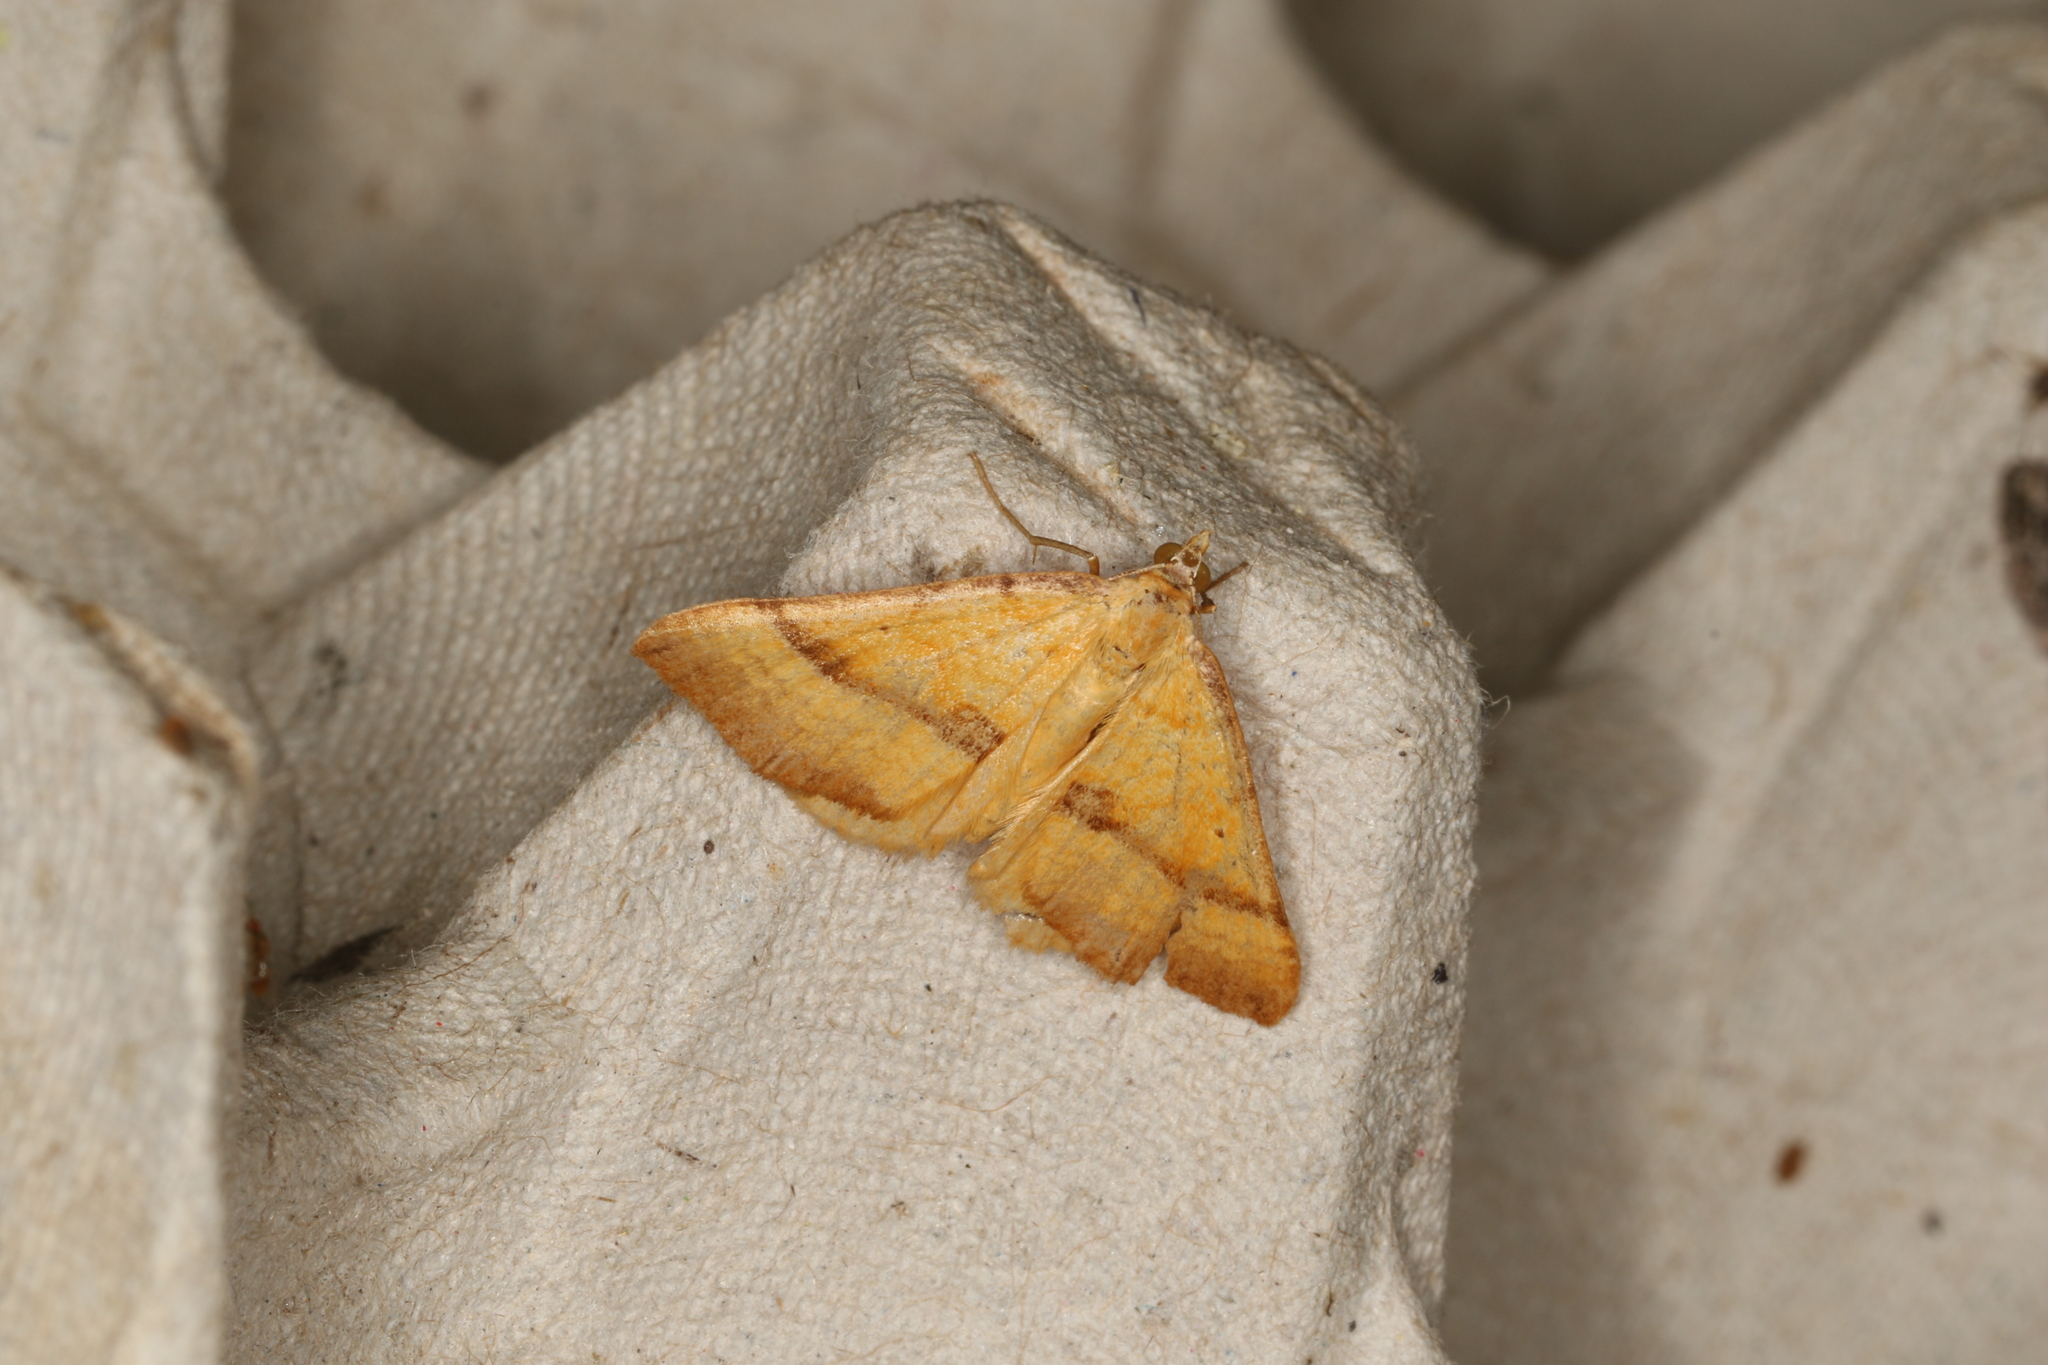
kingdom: Animalia
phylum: Arthropoda
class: Insecta
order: Lepidoptera
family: Geometridae
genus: Anachloris
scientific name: Anachloris subochraria
